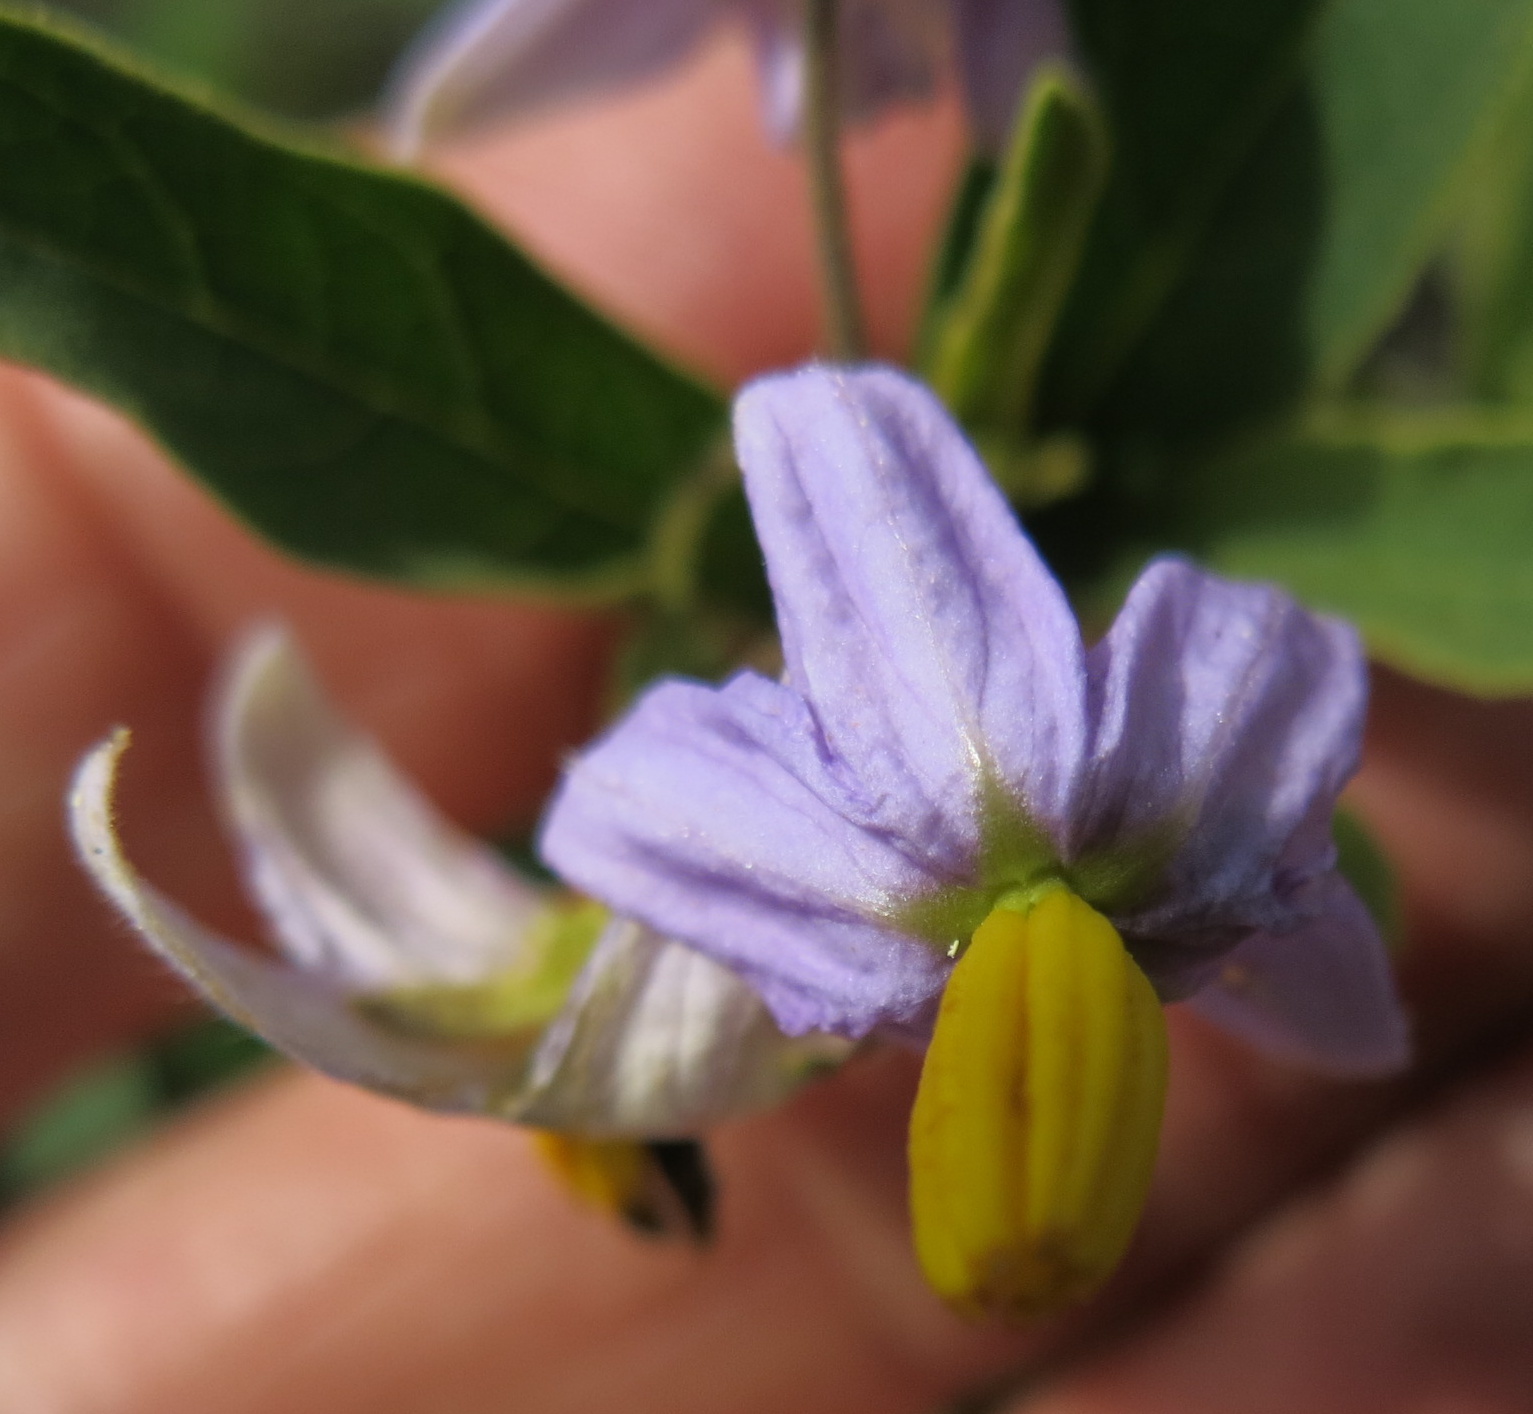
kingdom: Plantae
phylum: Tracheophyta
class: Magnoliopsida
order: Solanales
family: Solanaceae
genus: Solanum
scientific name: Solanum campylacanthum
